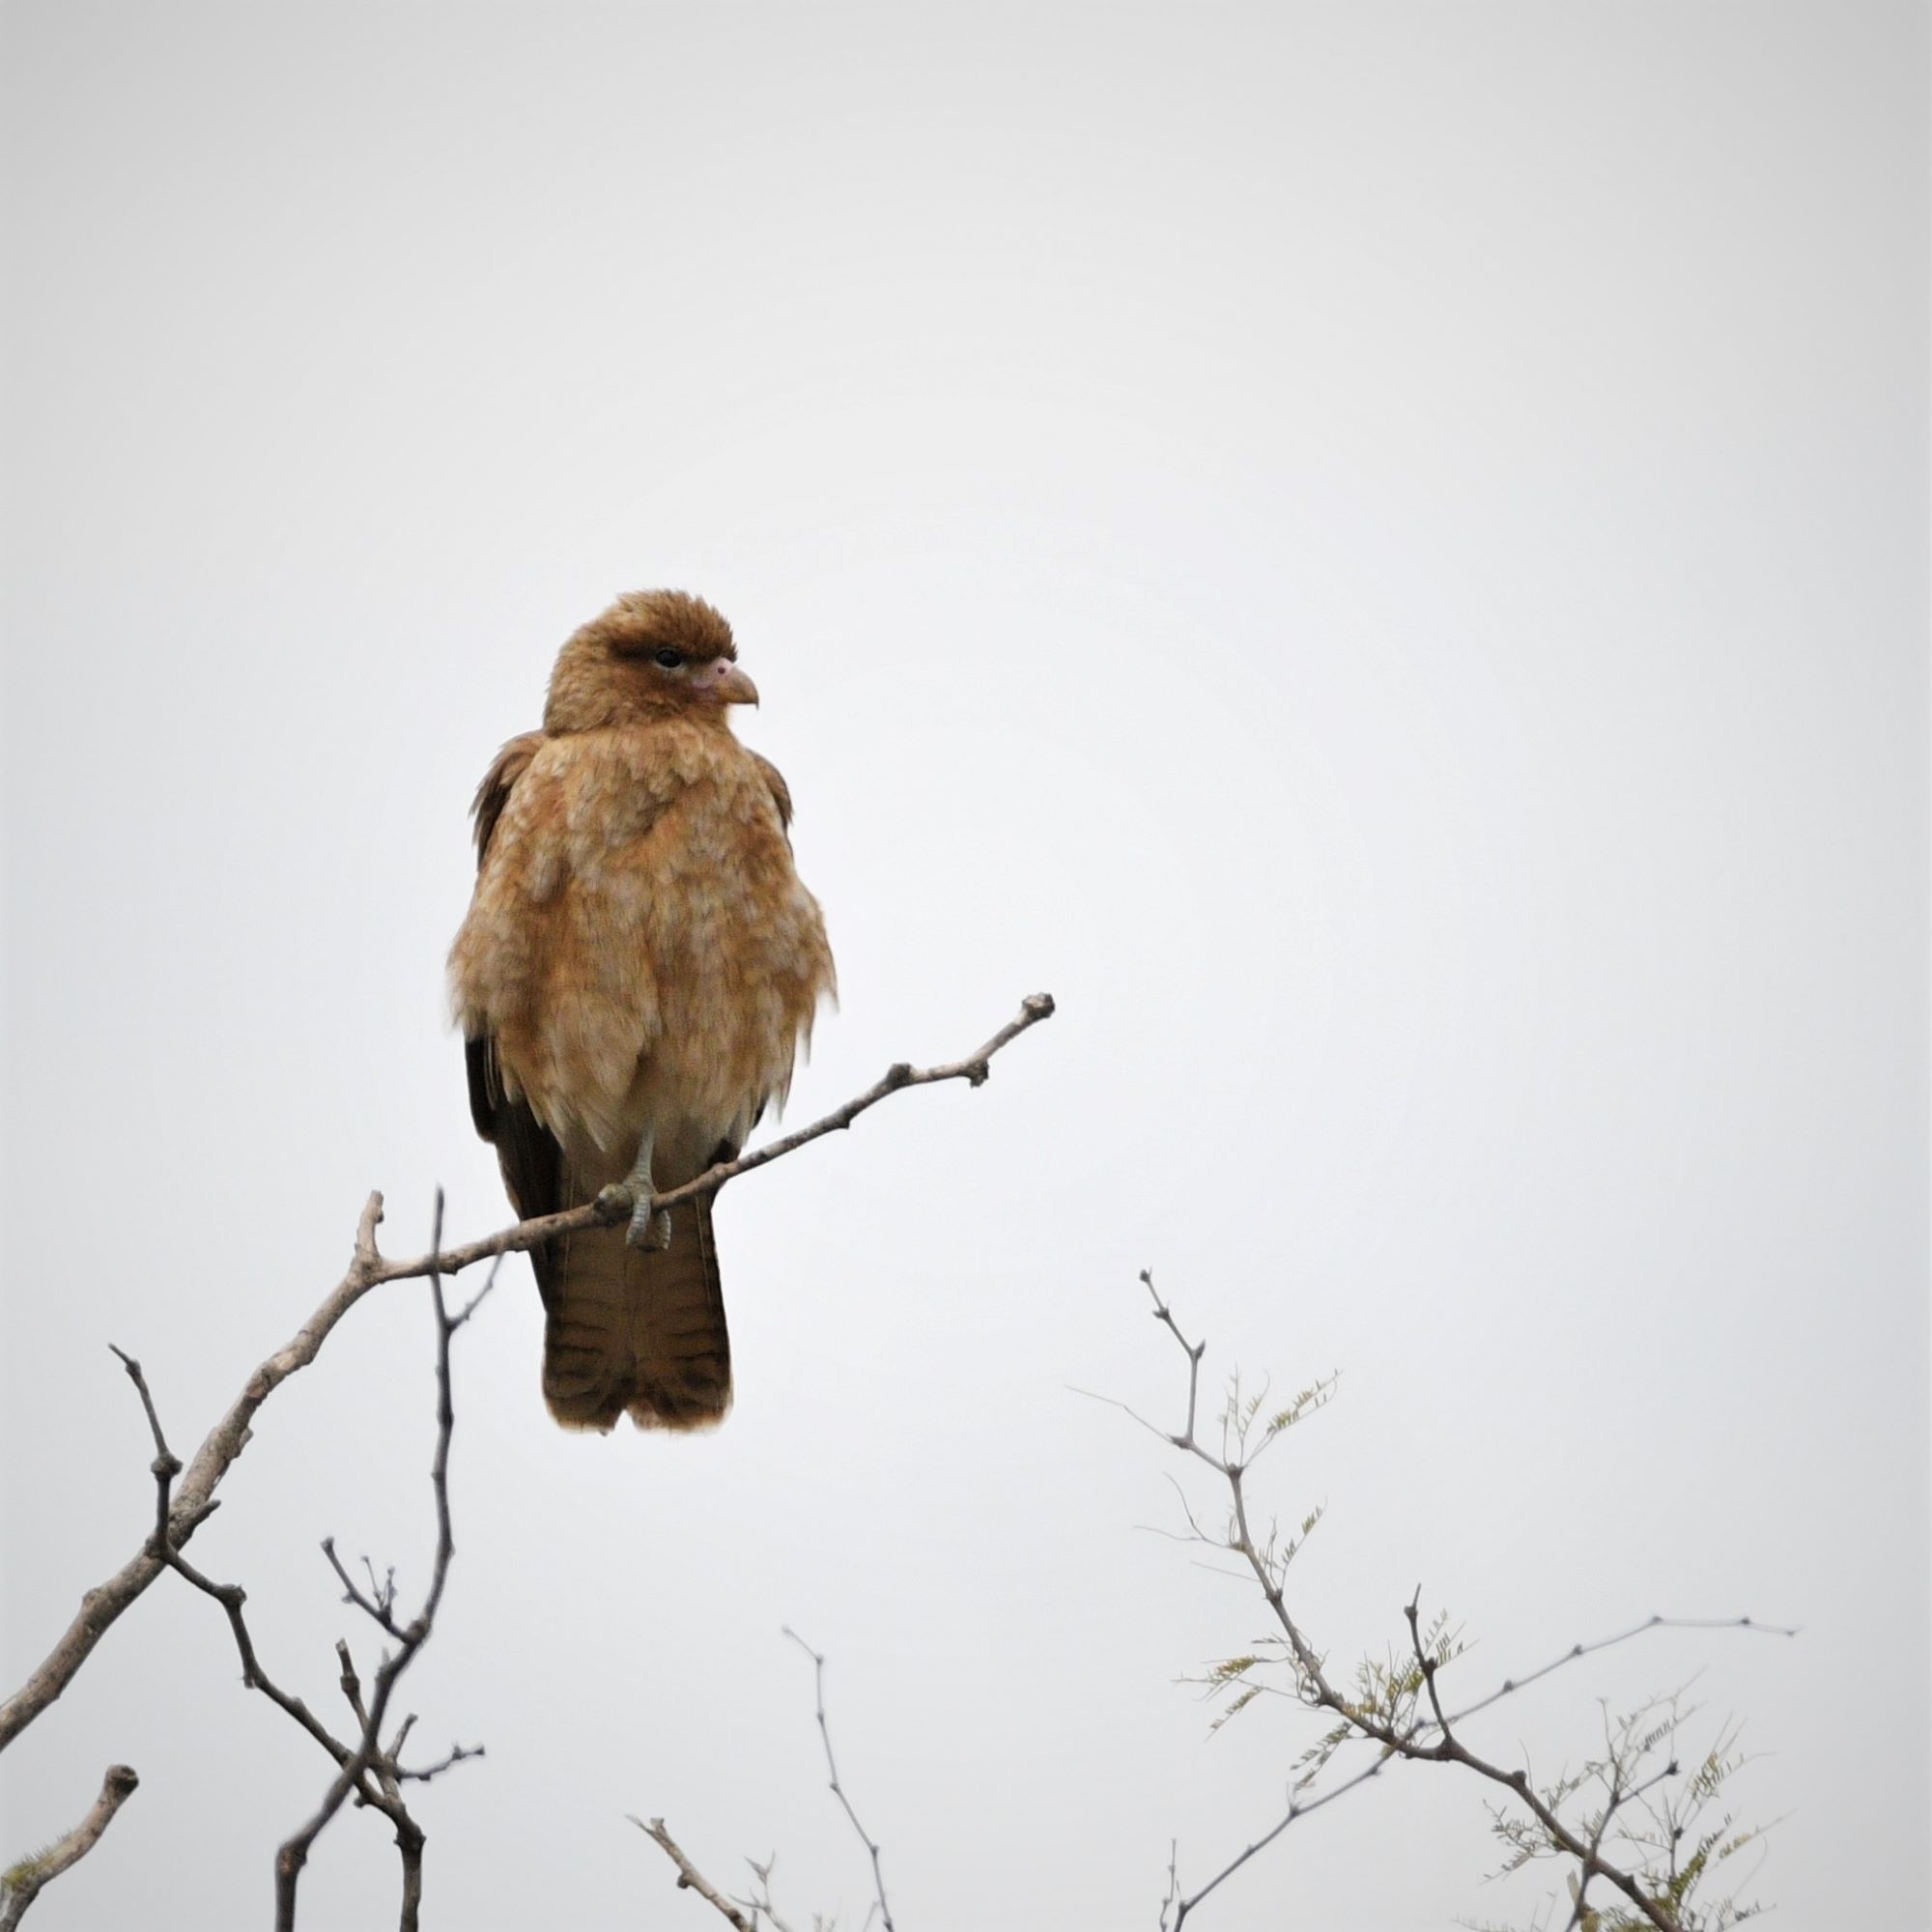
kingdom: Animalia
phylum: Chordata
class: Aves
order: Falconiformes
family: Falconidae
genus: Daptrius
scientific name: Daptrius
